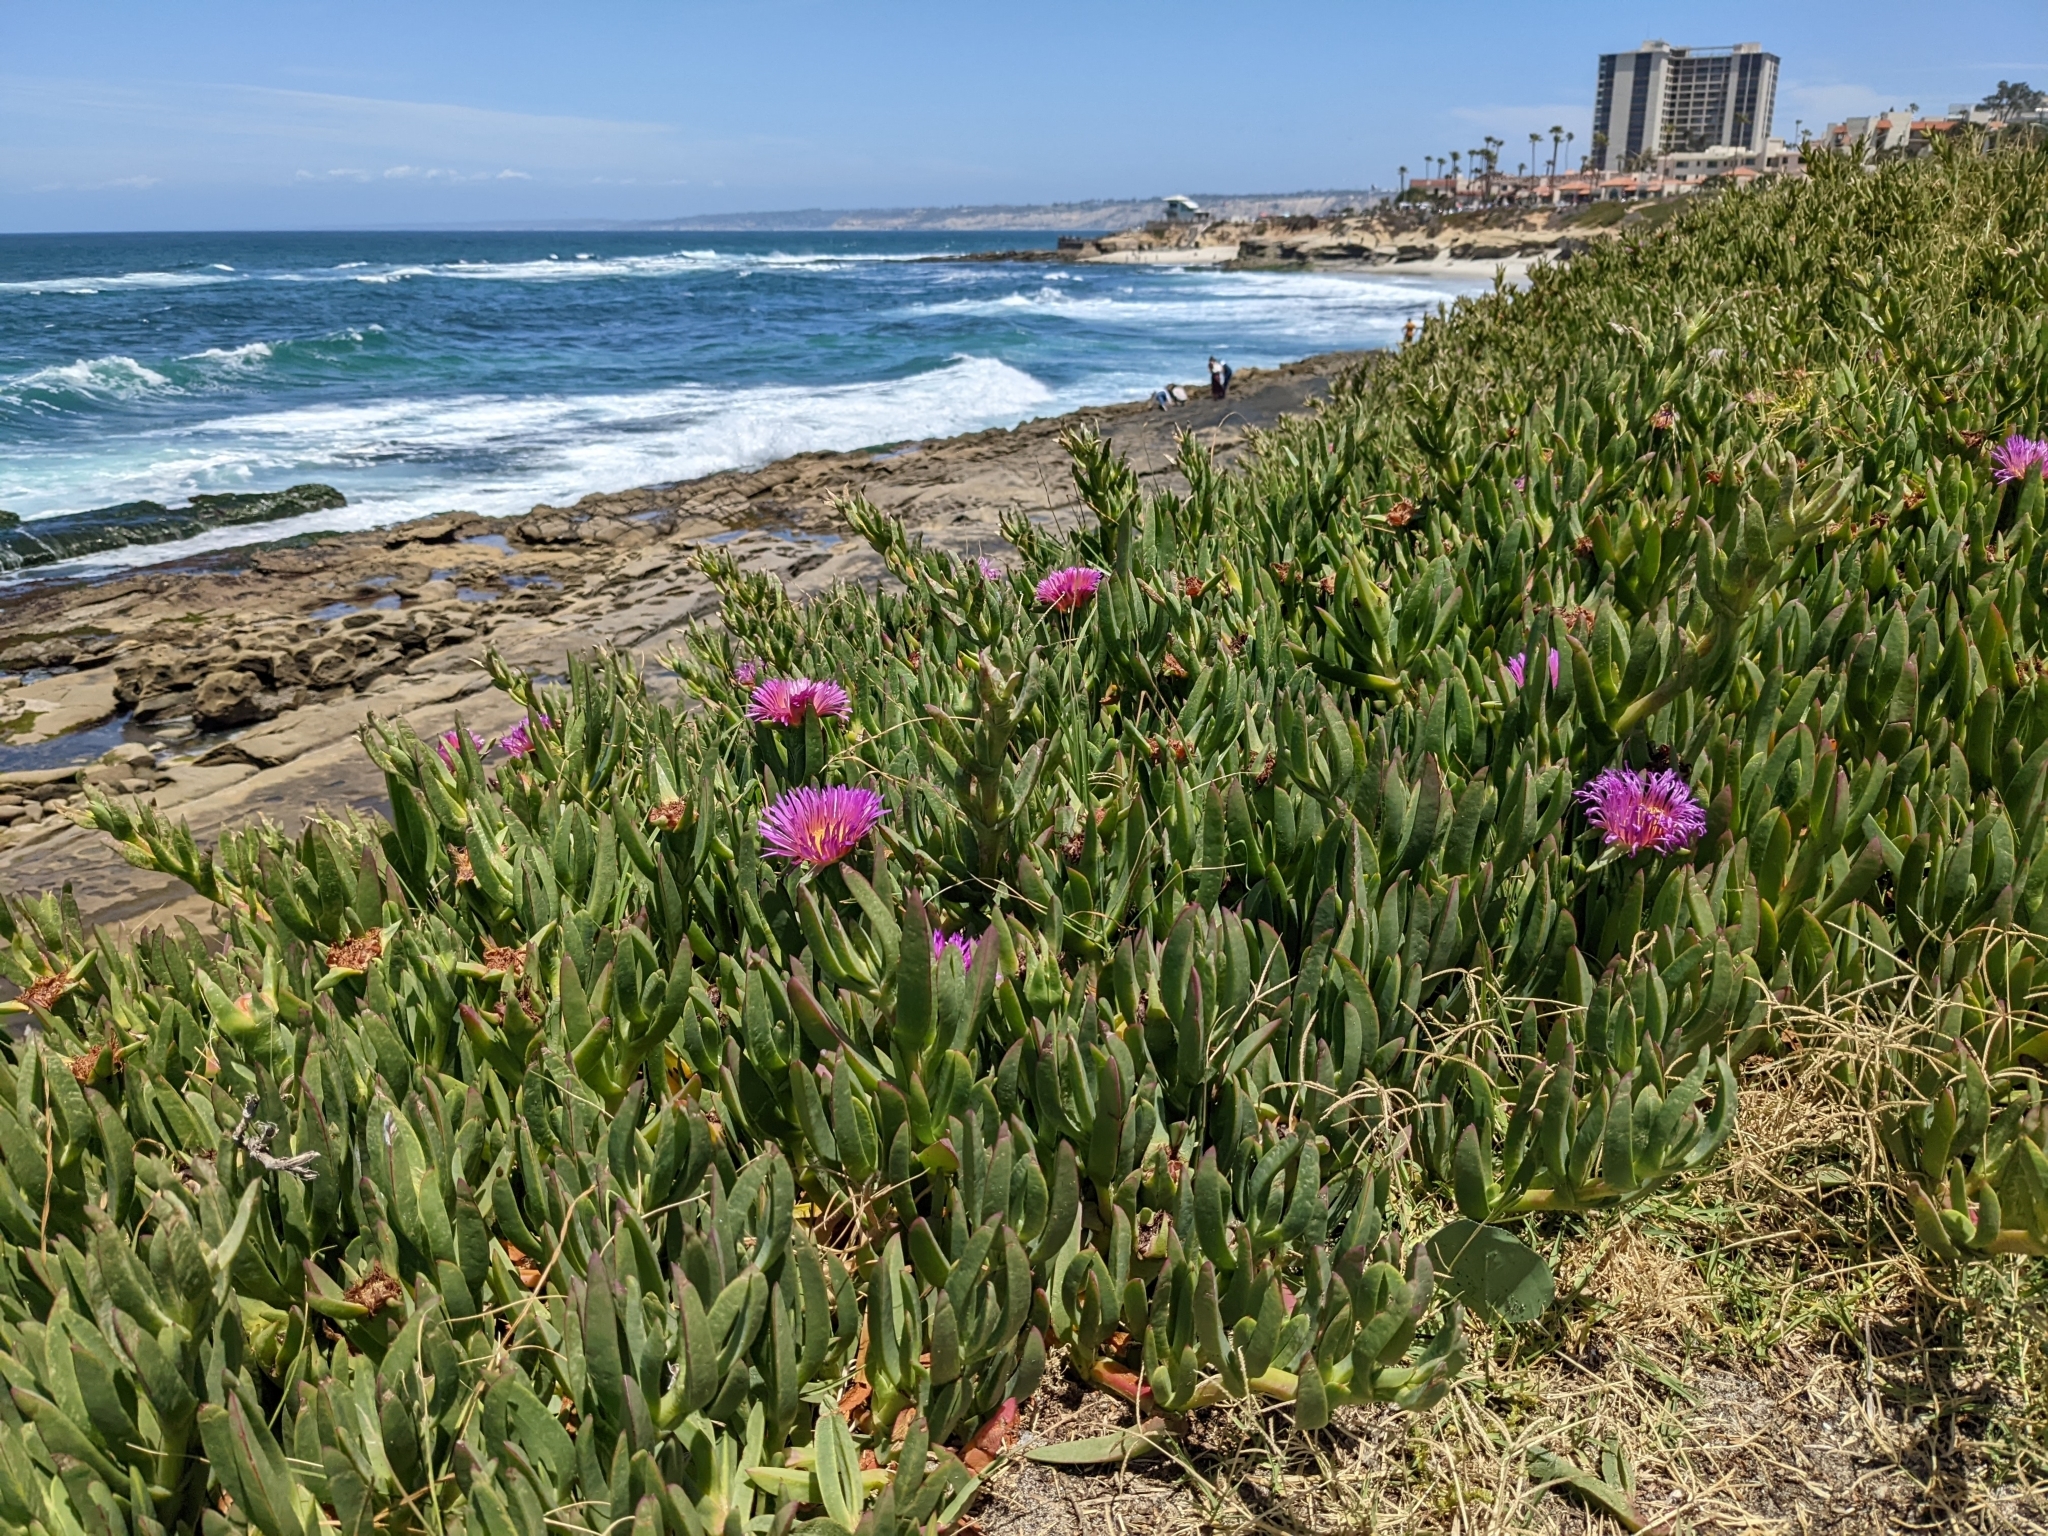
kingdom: Plantae
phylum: Tracheophyta
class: Magnoliopsida
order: Caryophyllales
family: Aizoaceae
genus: Carpobrotus
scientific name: Carpobrotus chilensis
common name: Sea fig
